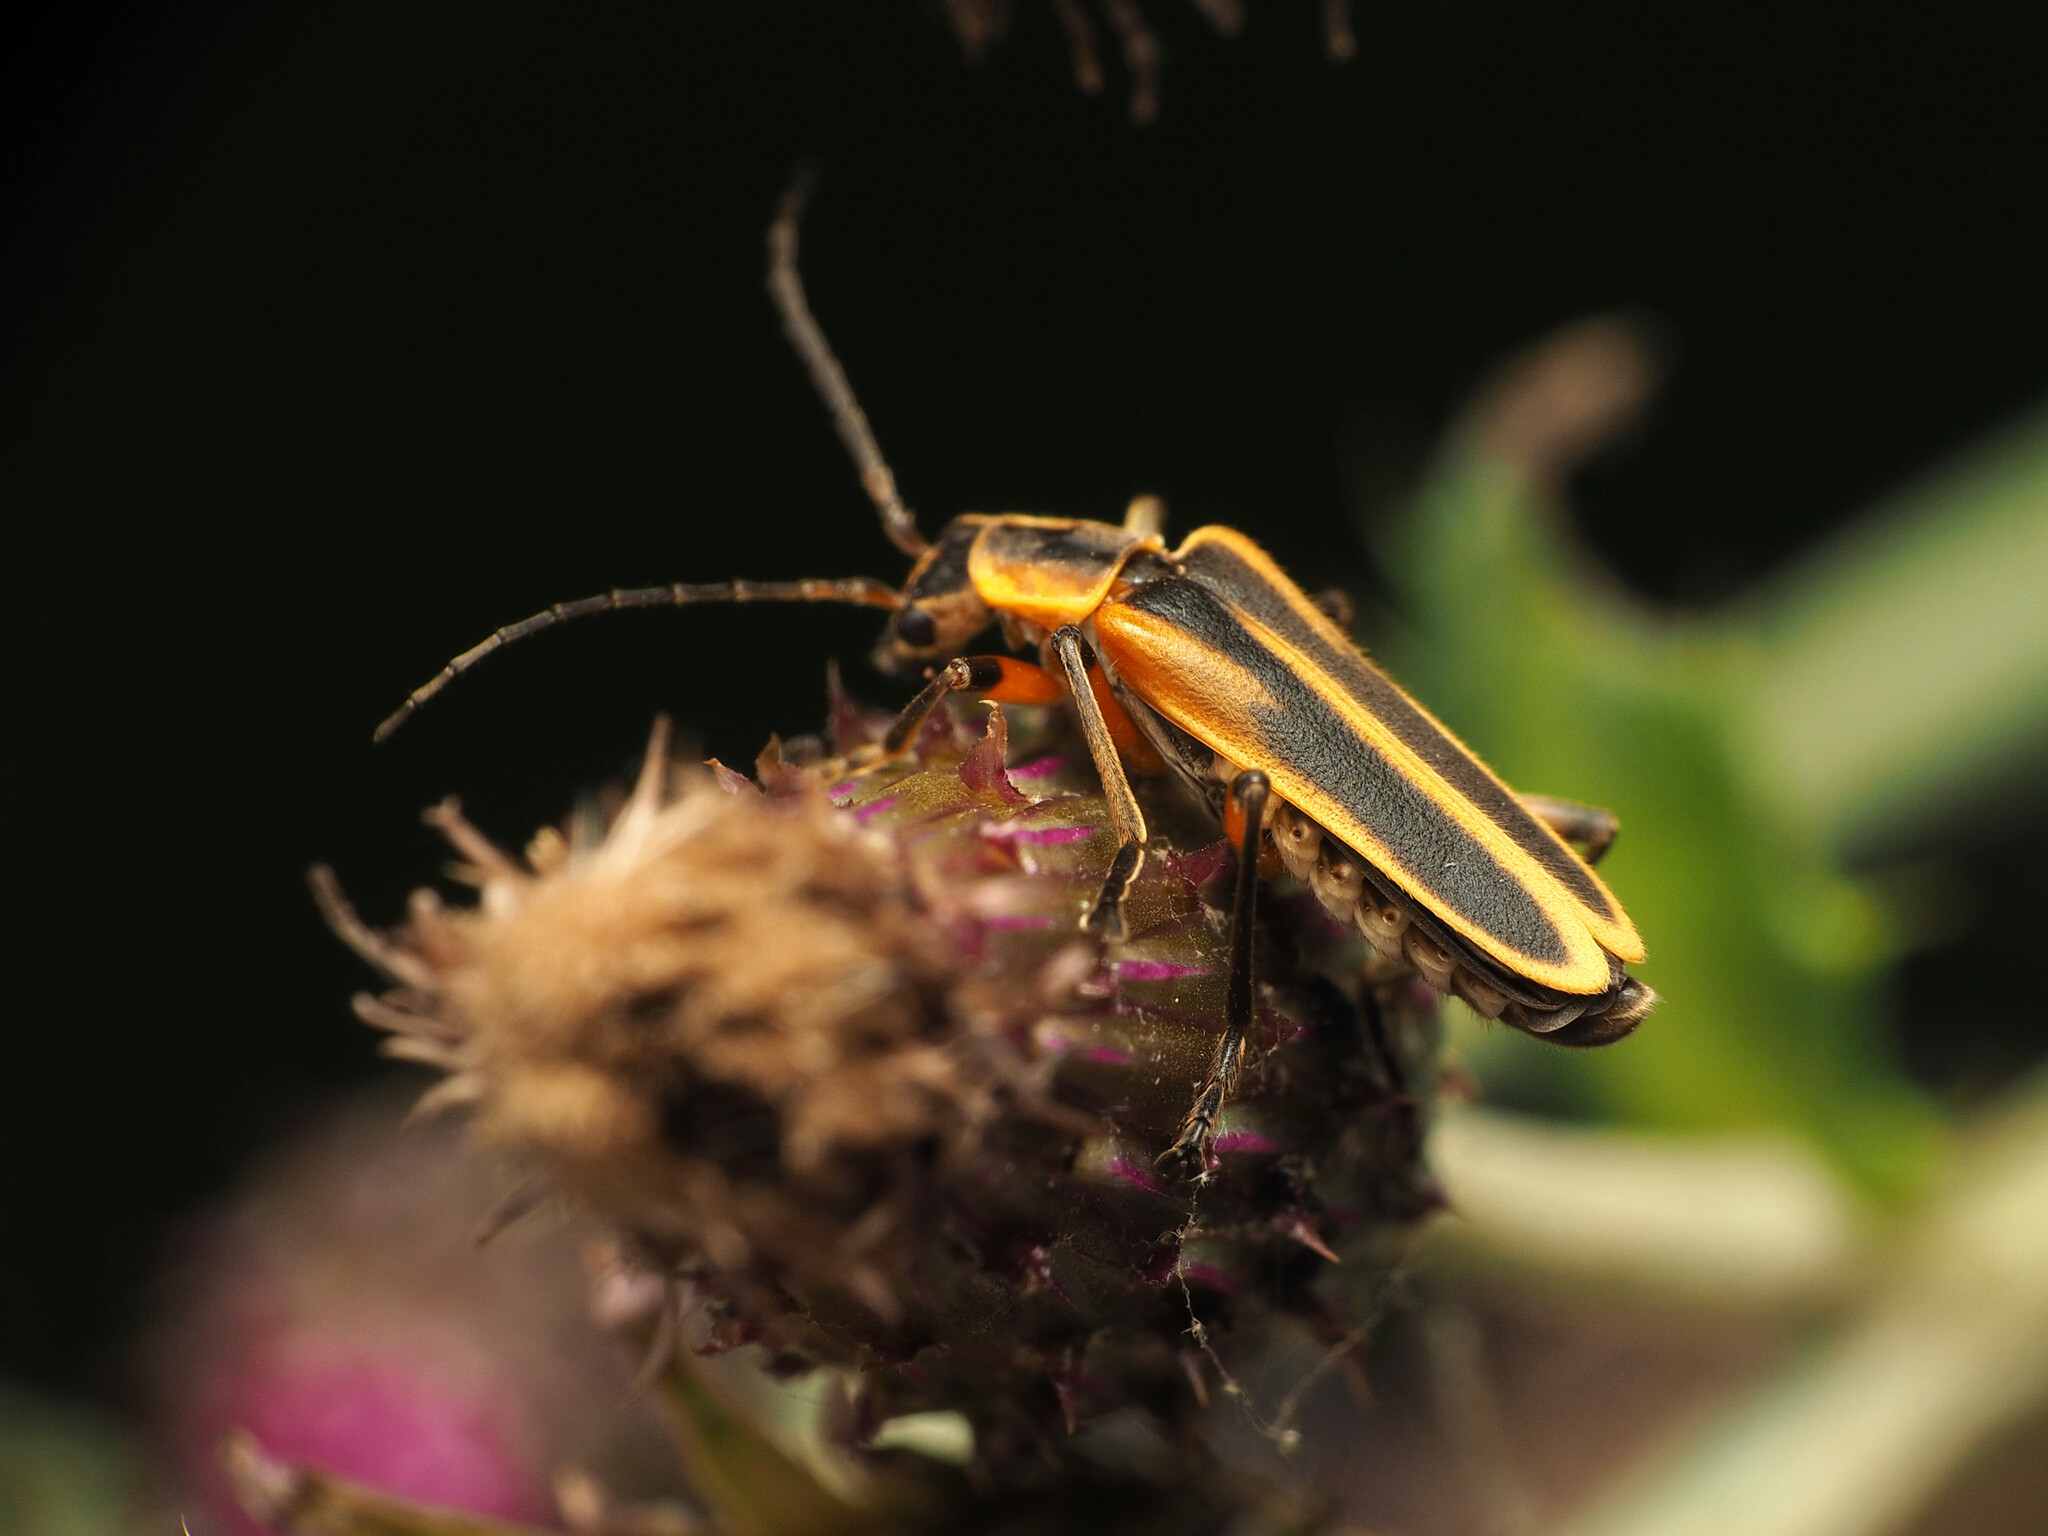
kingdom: Animalia
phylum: Arthropoda
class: Insecta
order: Coleoptera
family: Cantharidae
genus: Chauliognathus
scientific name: Chauliognathus marginatus
